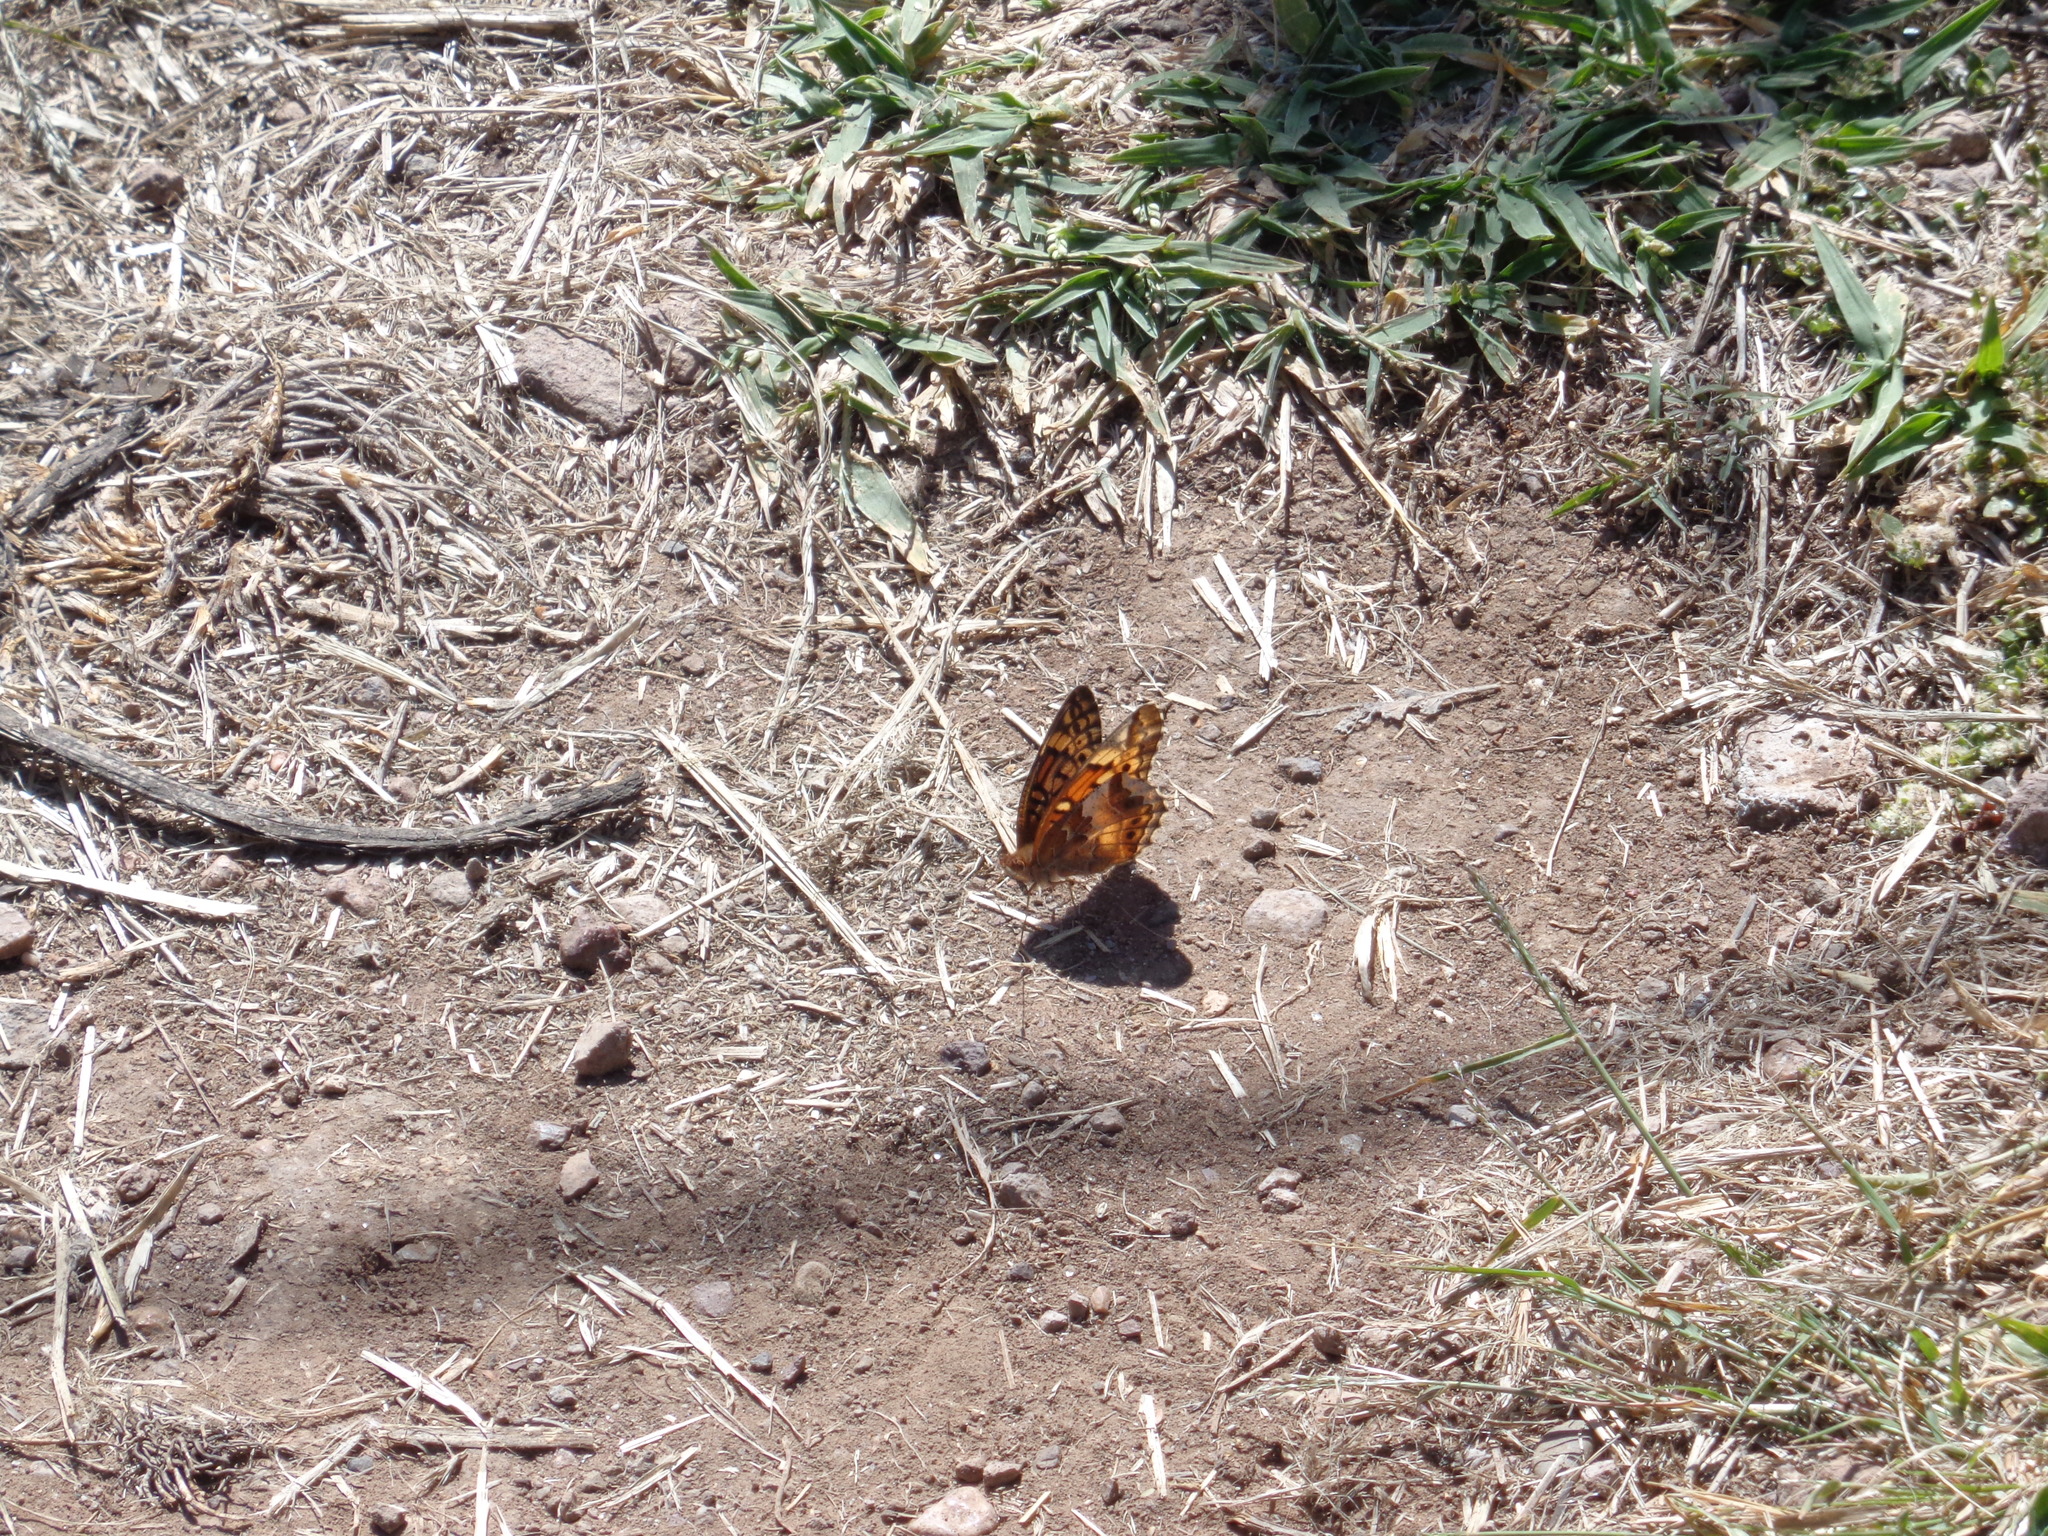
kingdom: Animalia
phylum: Arthropoda
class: Insecta
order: Lepidoptera
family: Nymphalidae
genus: Euptoieta
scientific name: Euptoieta claudia
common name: Variegated fritillary
